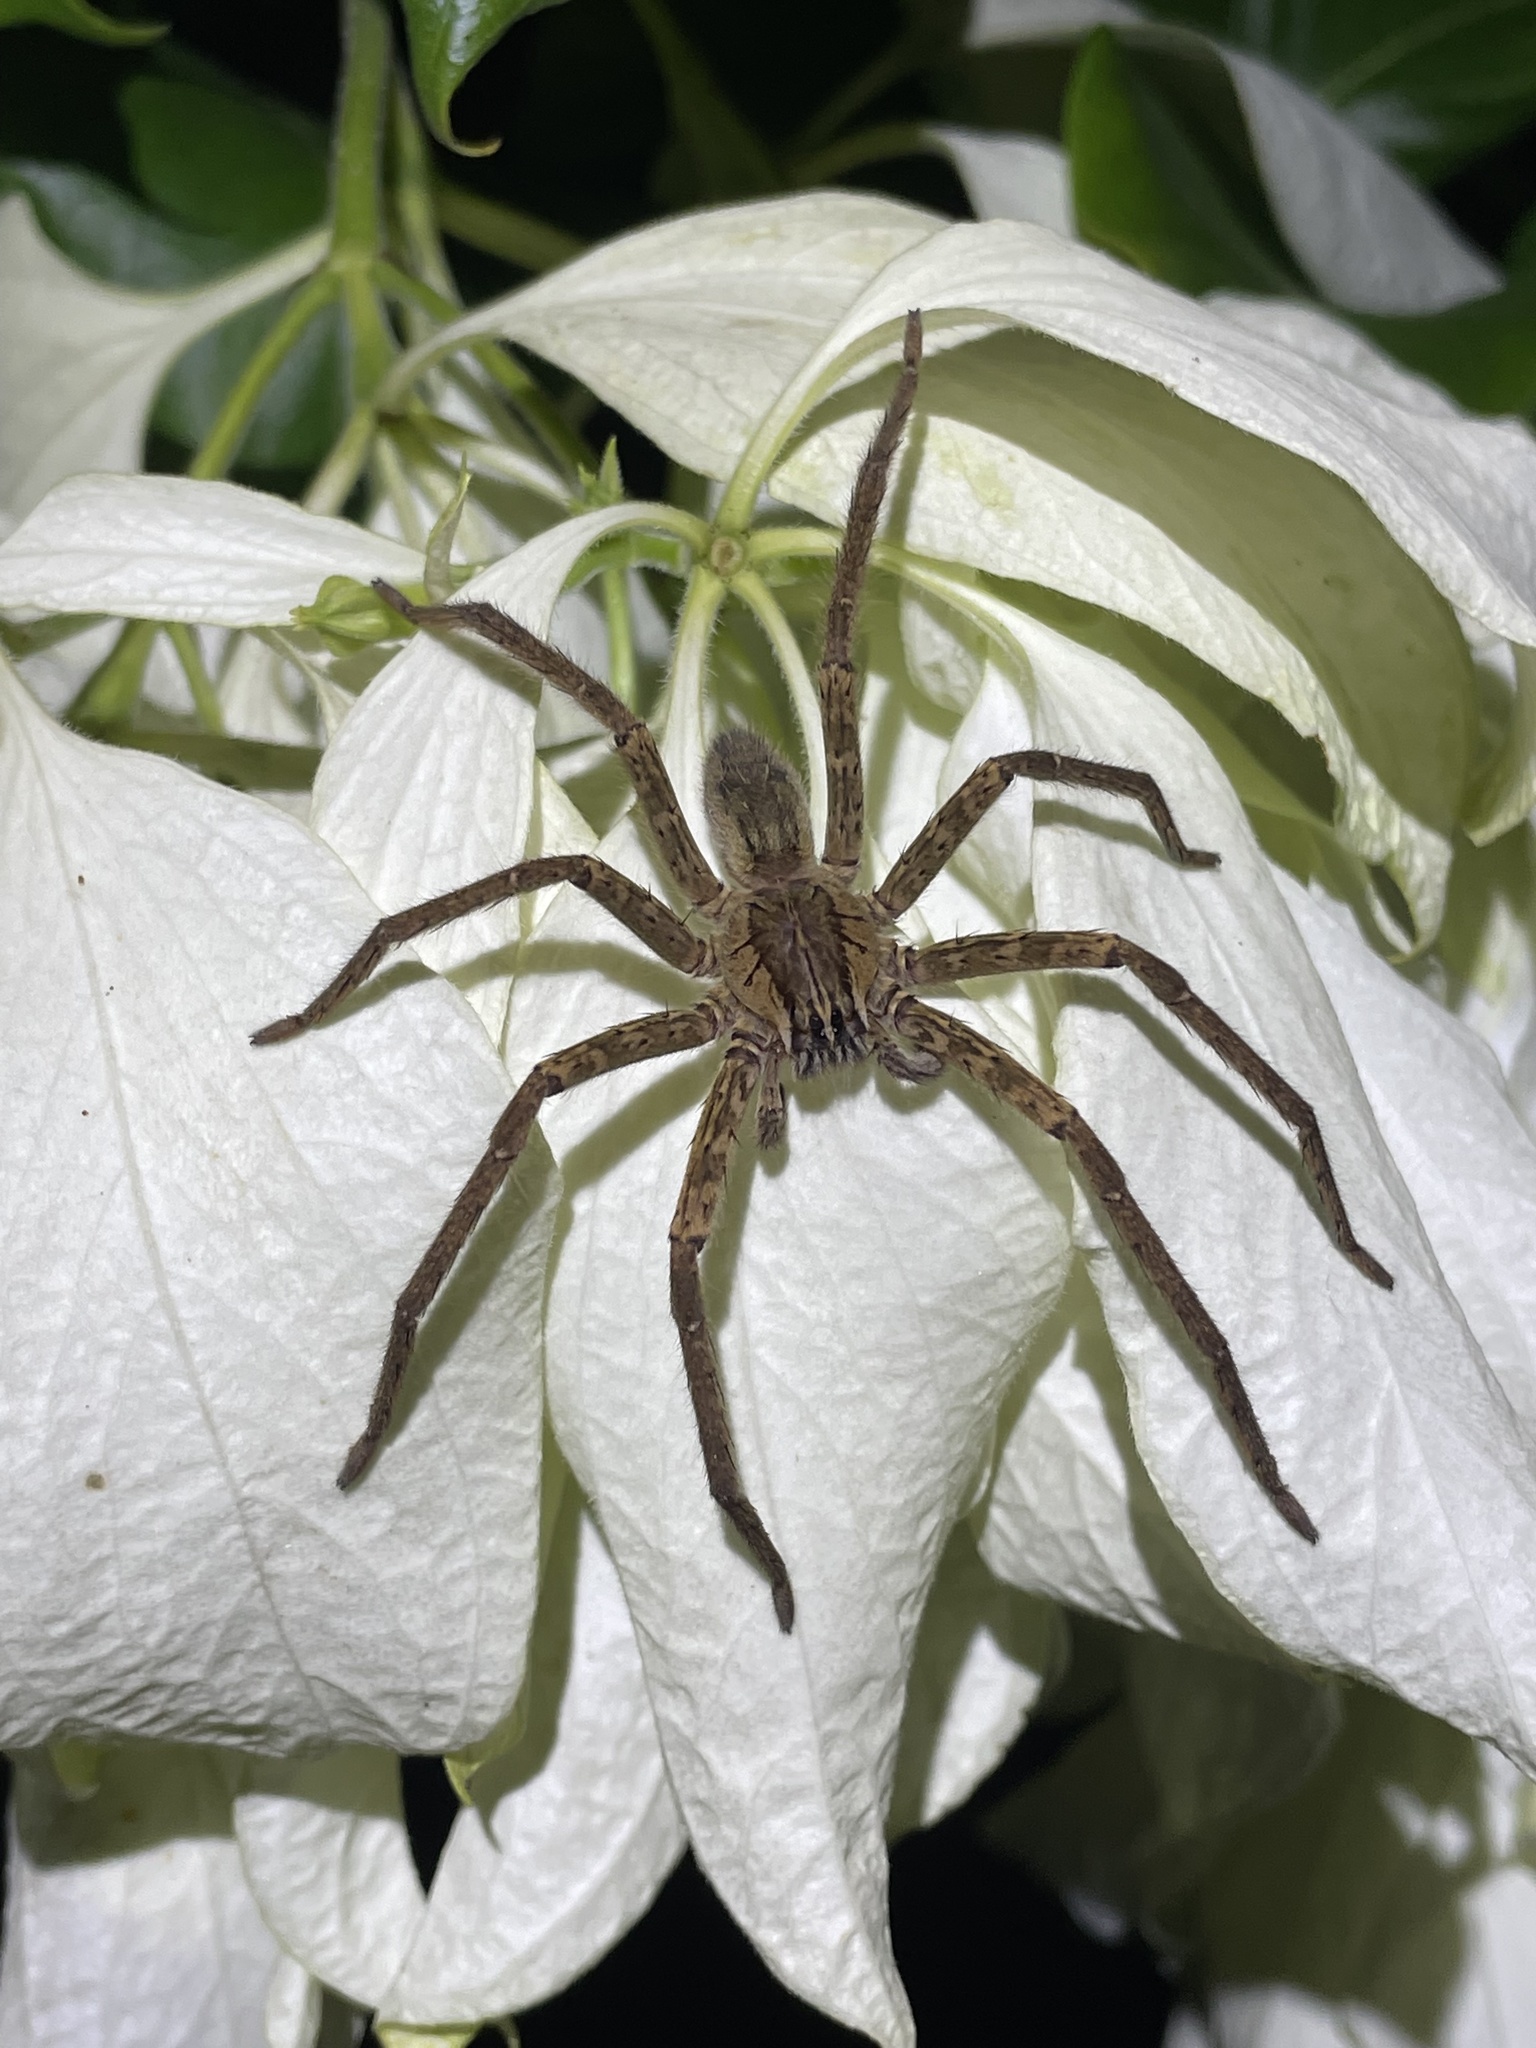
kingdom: Animalia
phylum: Arthropoda
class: Arachnida
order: Araneae
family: Trechaleidae
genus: Cupiennius
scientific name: Cupiennius coccineus
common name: Wandering spiders
